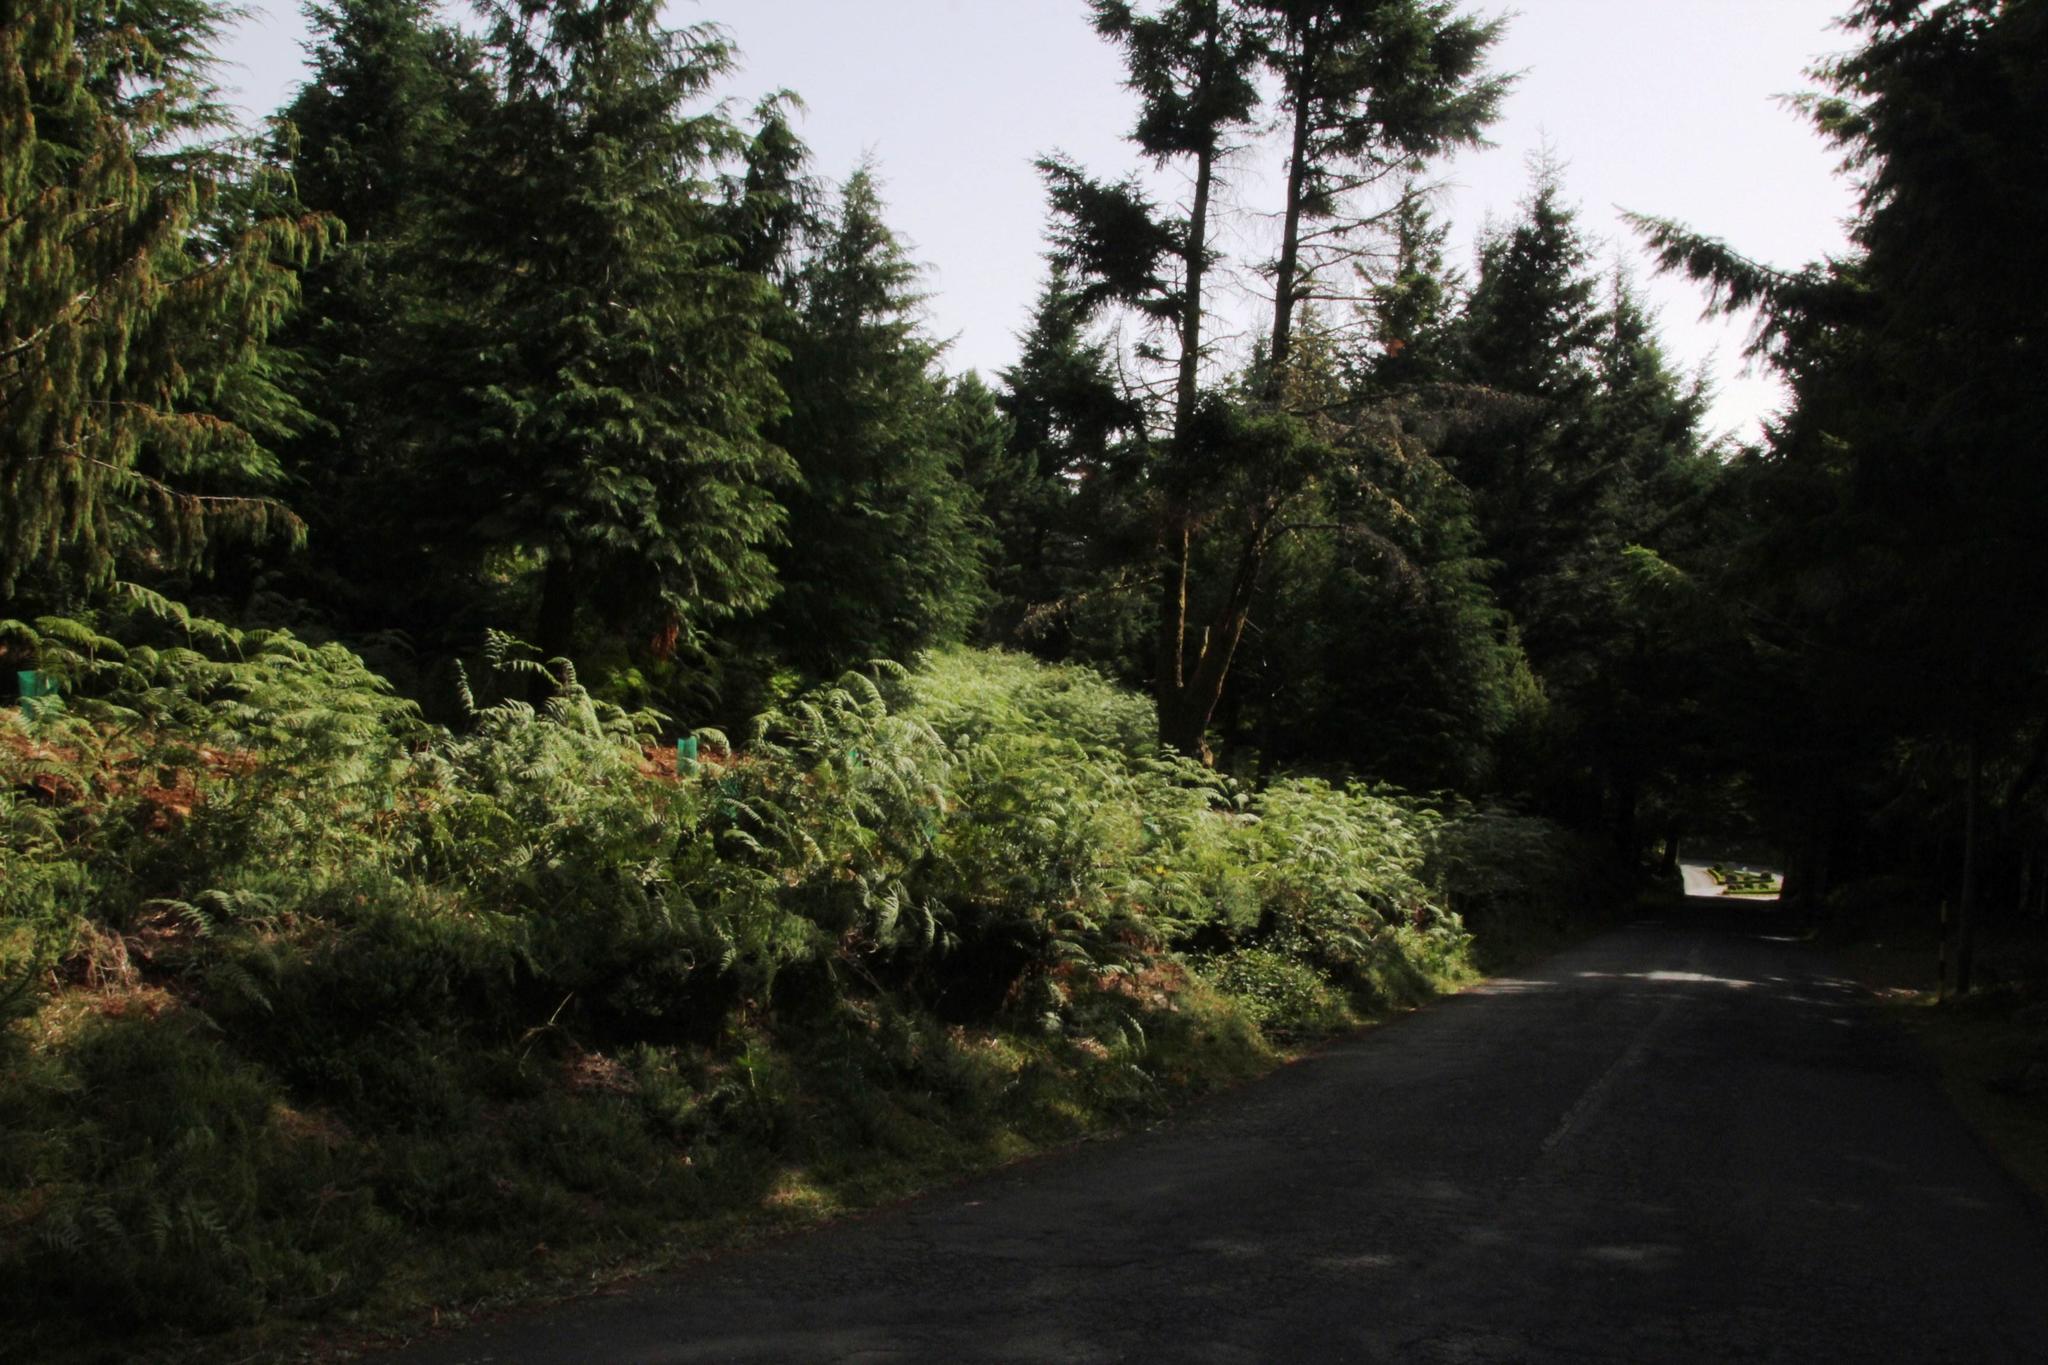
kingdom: Plantae
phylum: Tracheophyta
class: Polypodiopsida
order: Polypodiales
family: Dennstaedtiaceae
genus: Pteridium
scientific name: Pteridium aquilinum
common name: Bracken
